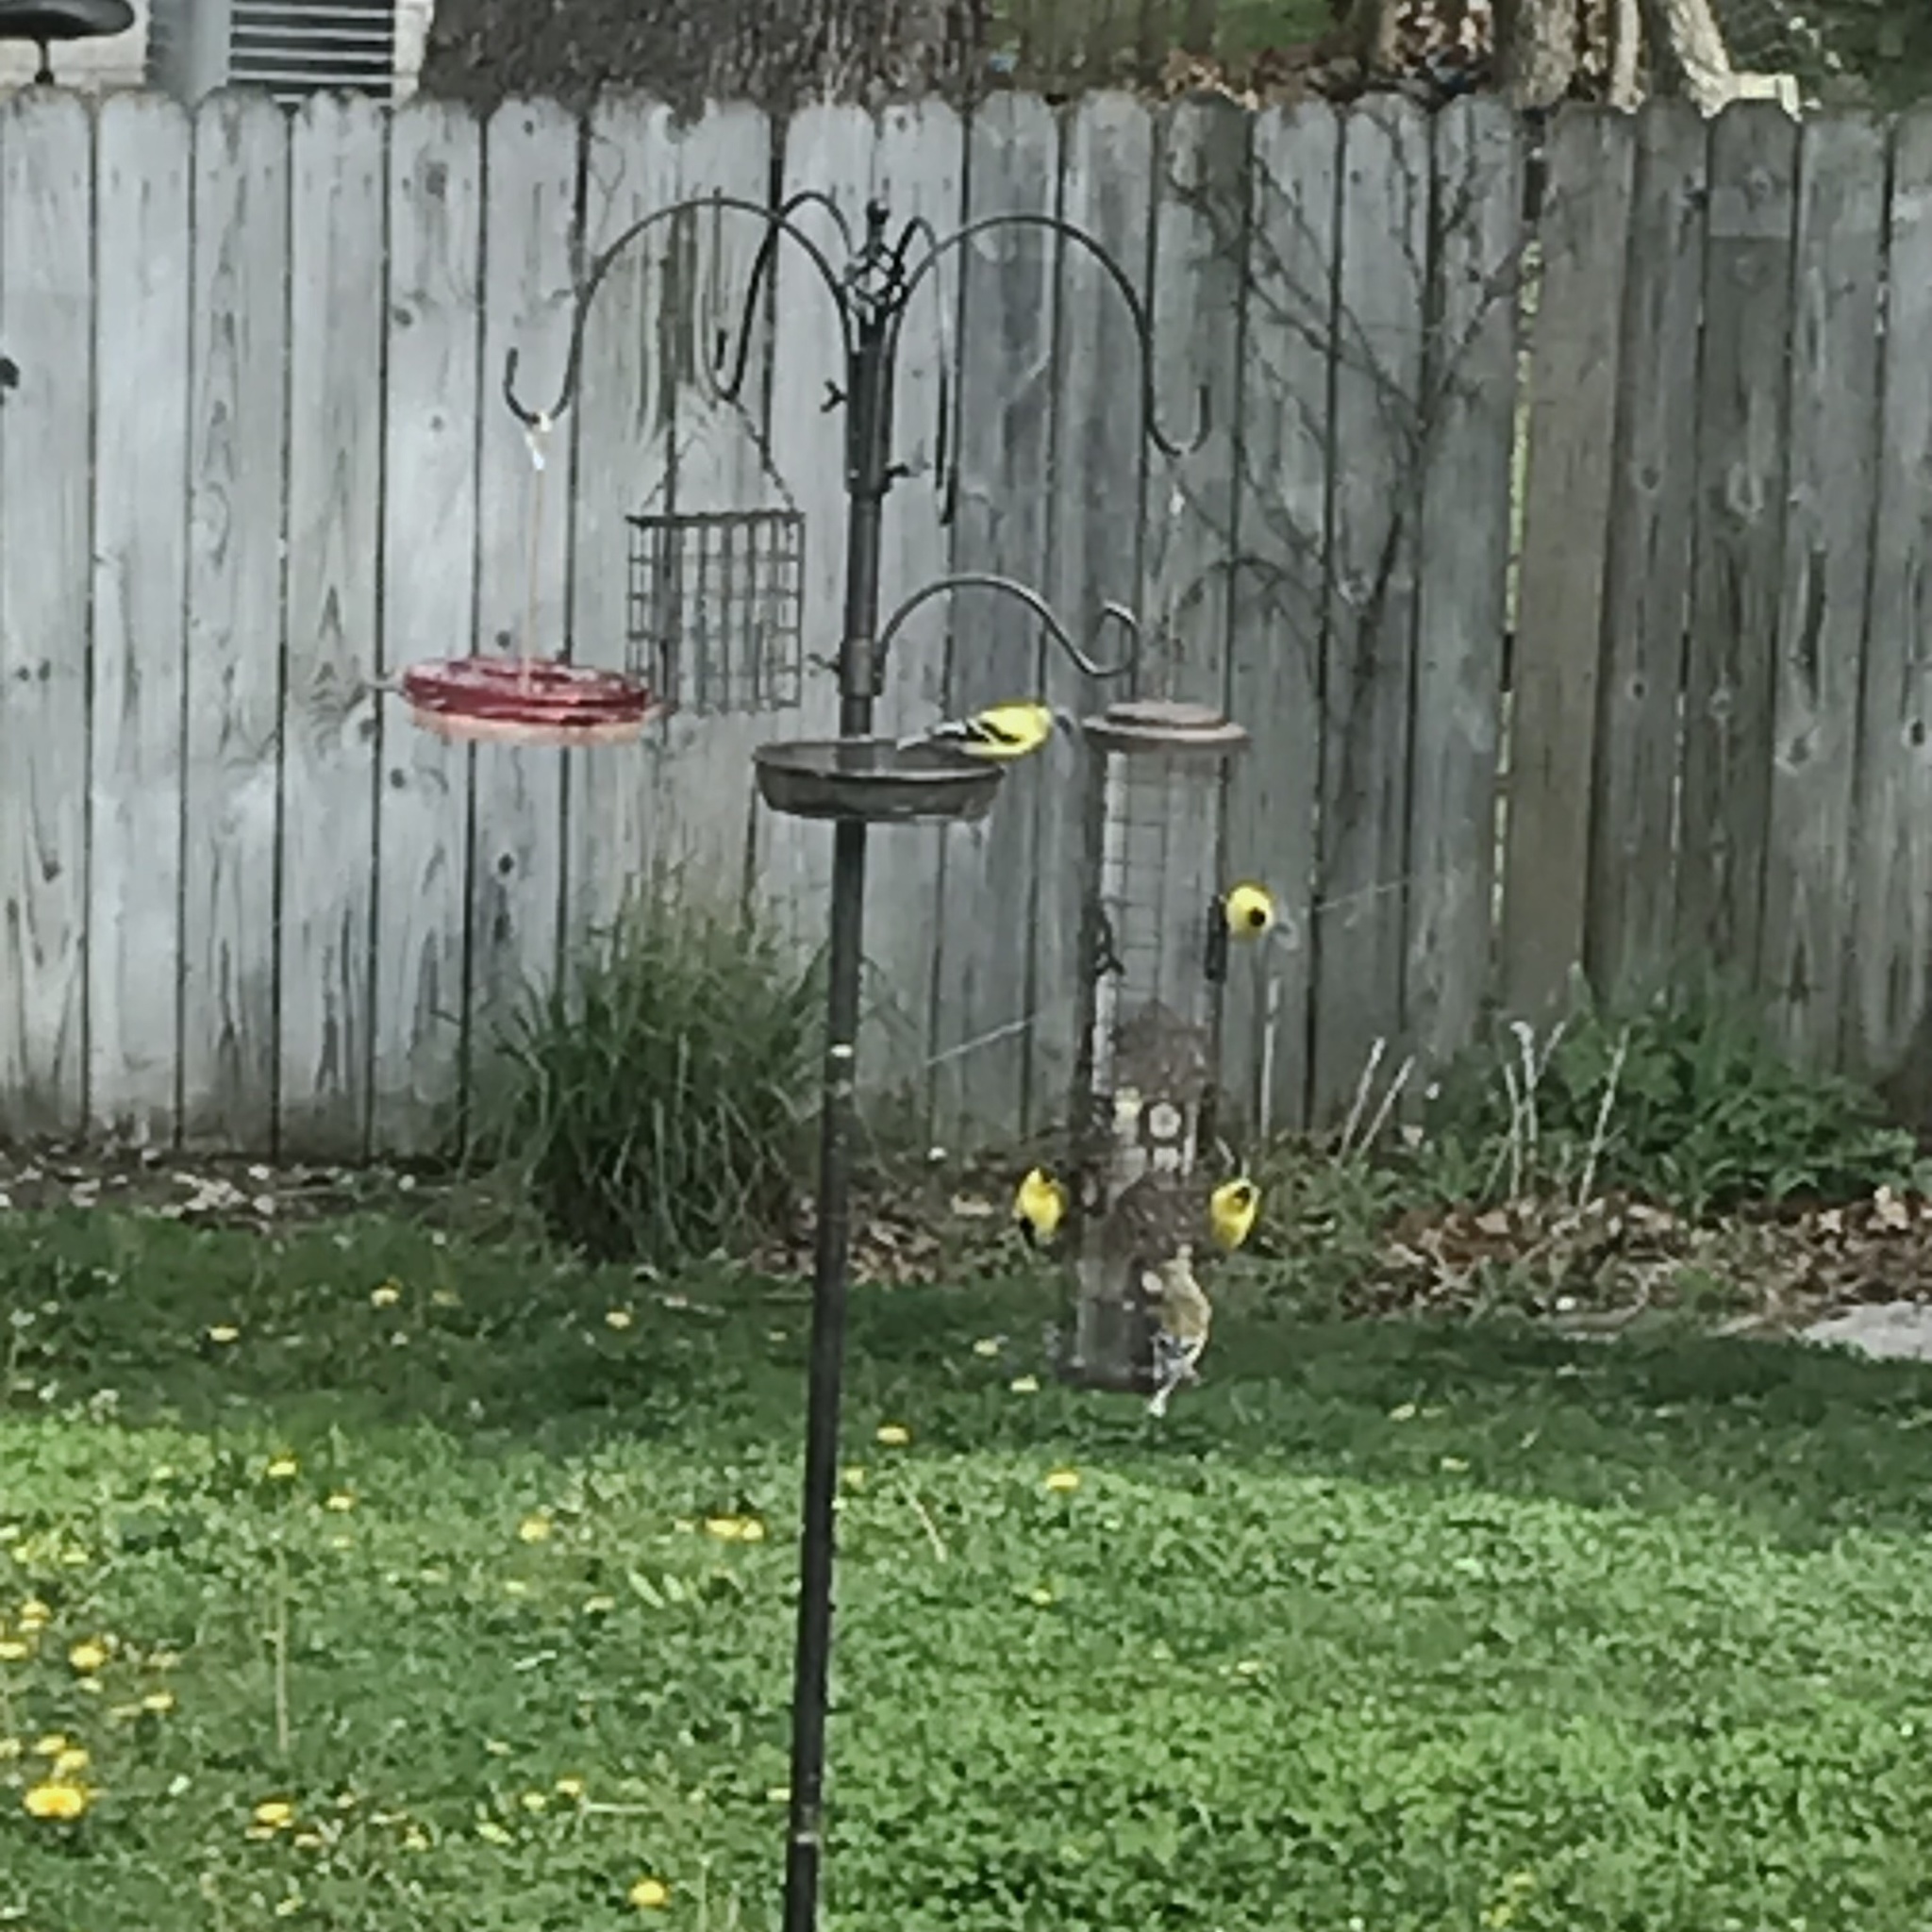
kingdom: Animalia
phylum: Chordata
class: Aves
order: Passeriformes
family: Fringillidae
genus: Spinus
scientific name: Spinus tristis
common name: American goldfinch
